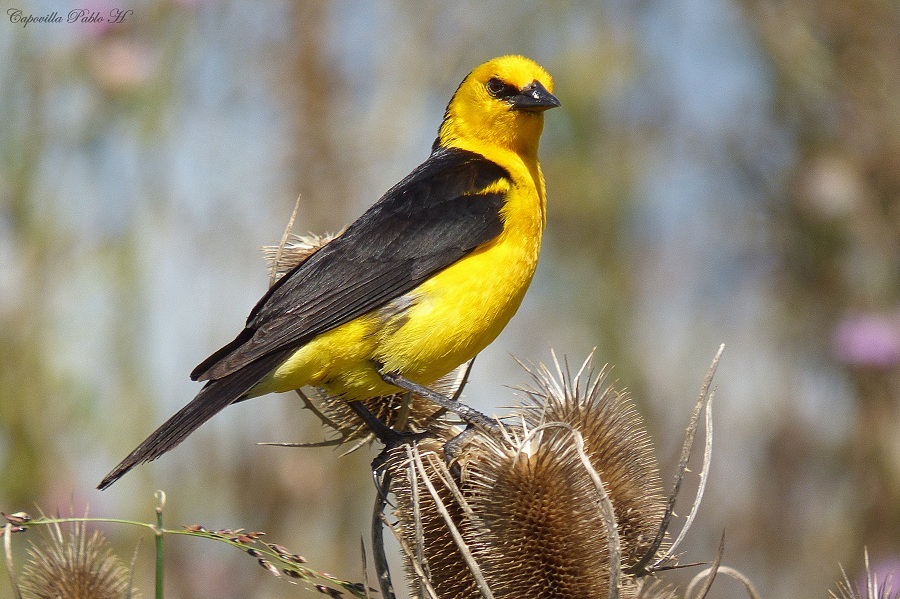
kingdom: Animalia
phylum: Chordata
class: Aves
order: Passeriformes
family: Icteridae
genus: Xanthopsar
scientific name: Xanthopsar flavus
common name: Saffron-cowled blackbird
